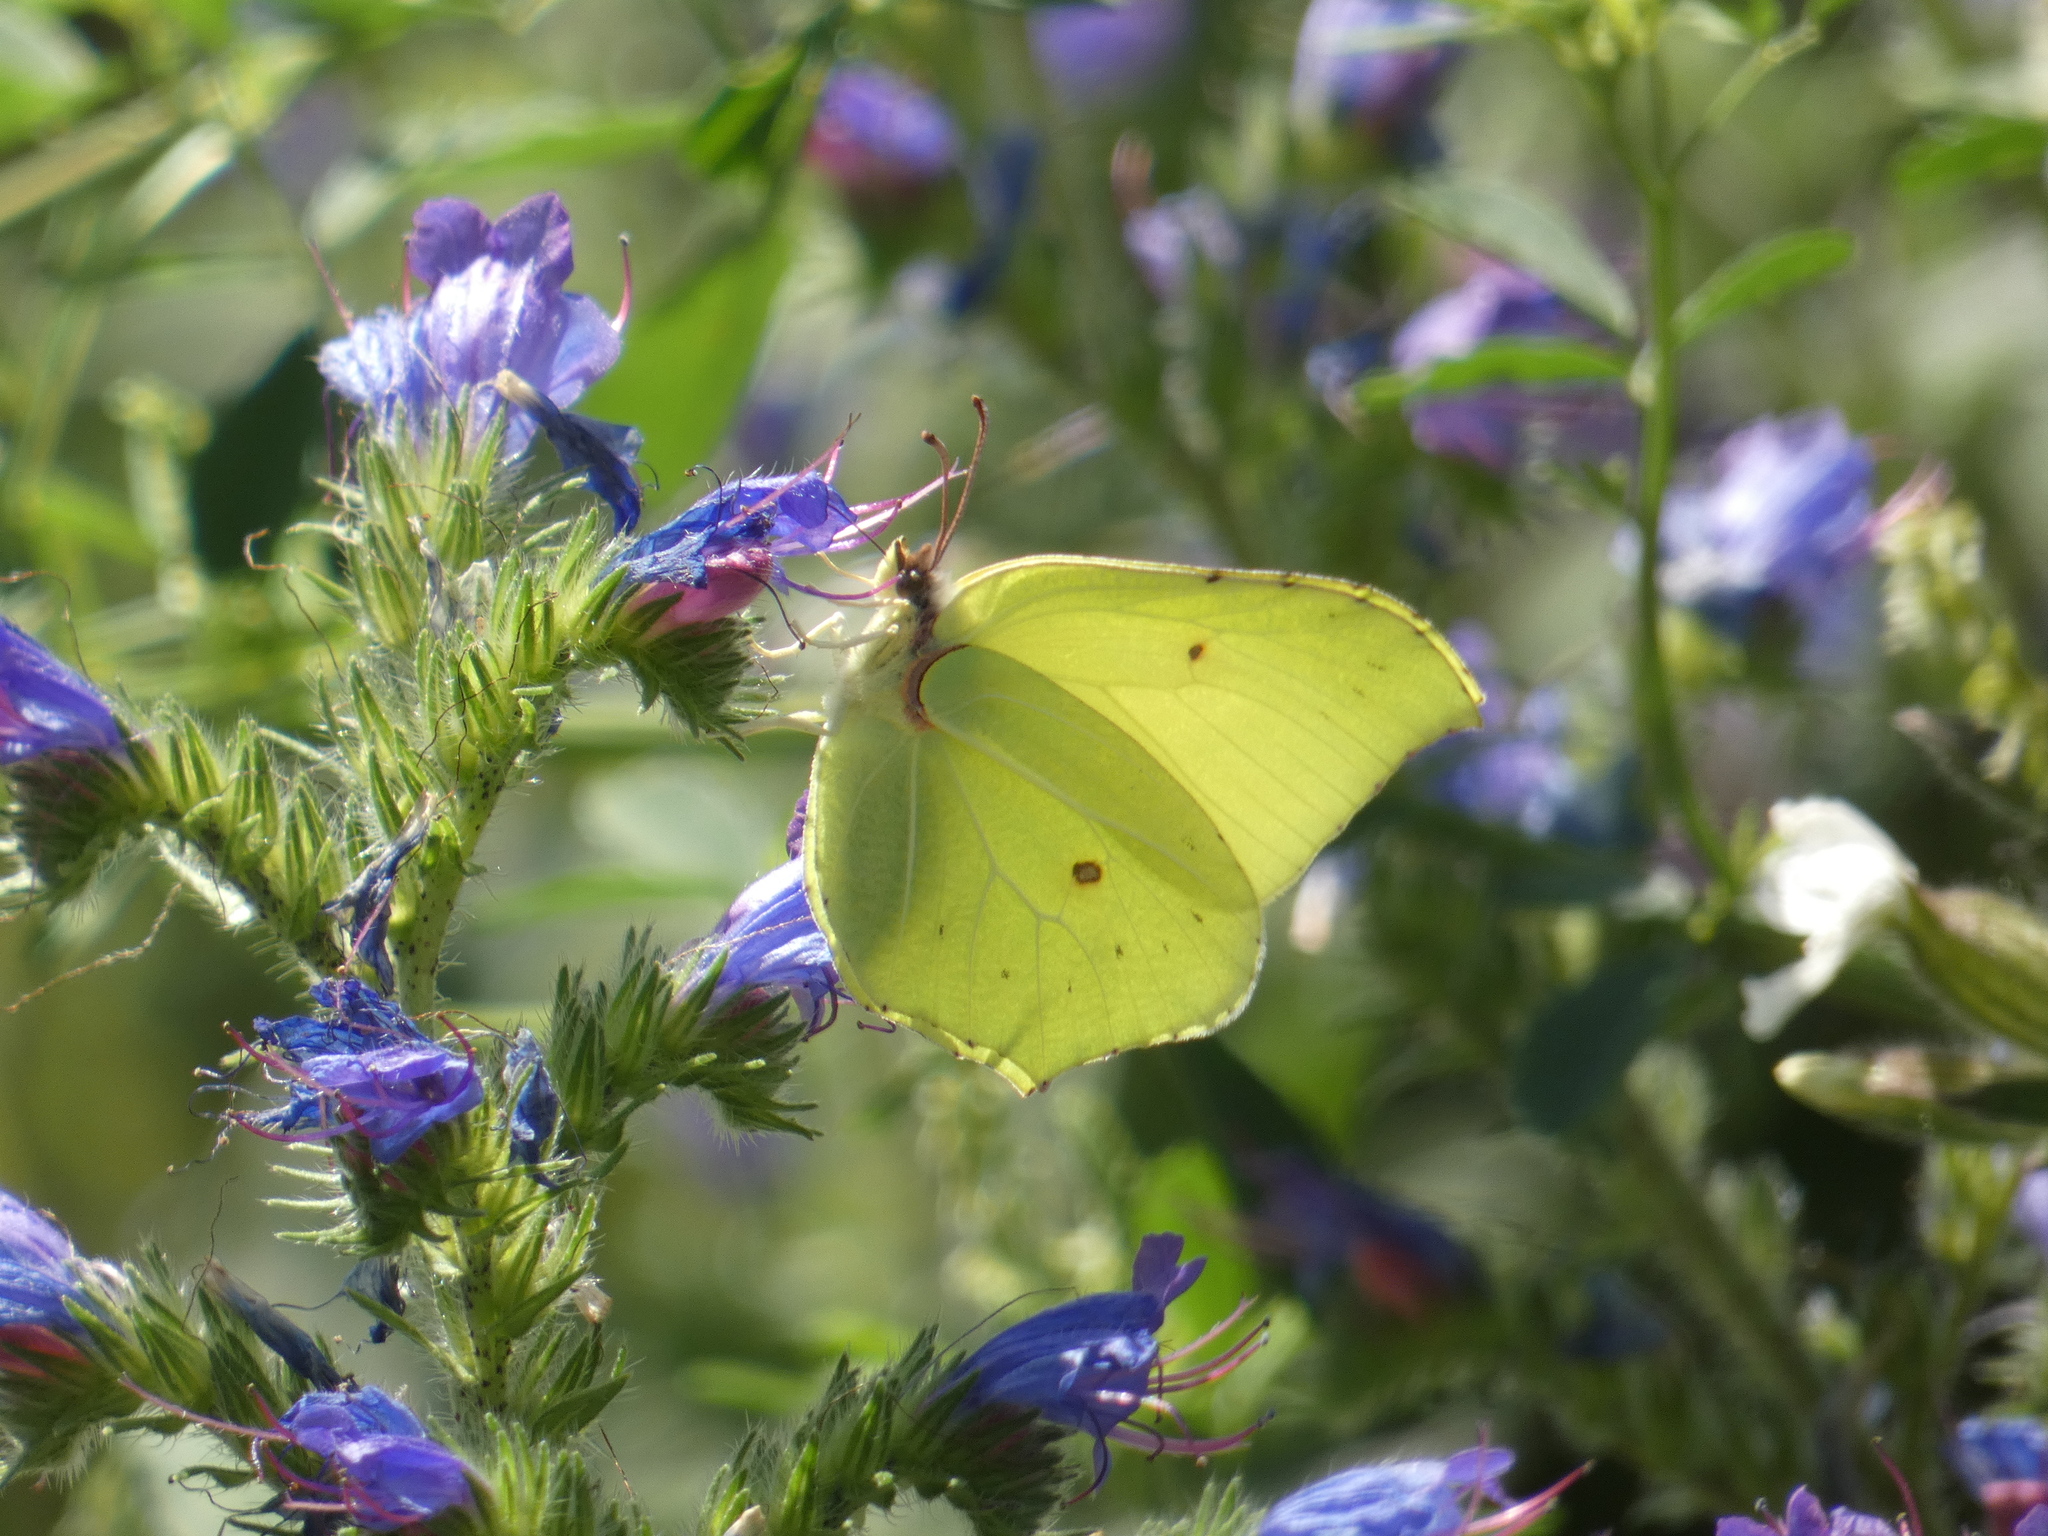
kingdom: Animalia
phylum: Arthropoda
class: Insecta
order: Lepidoptera
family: Pieridae
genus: Gonepteryx
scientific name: Gonepteryx rhamni
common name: Brimstone
